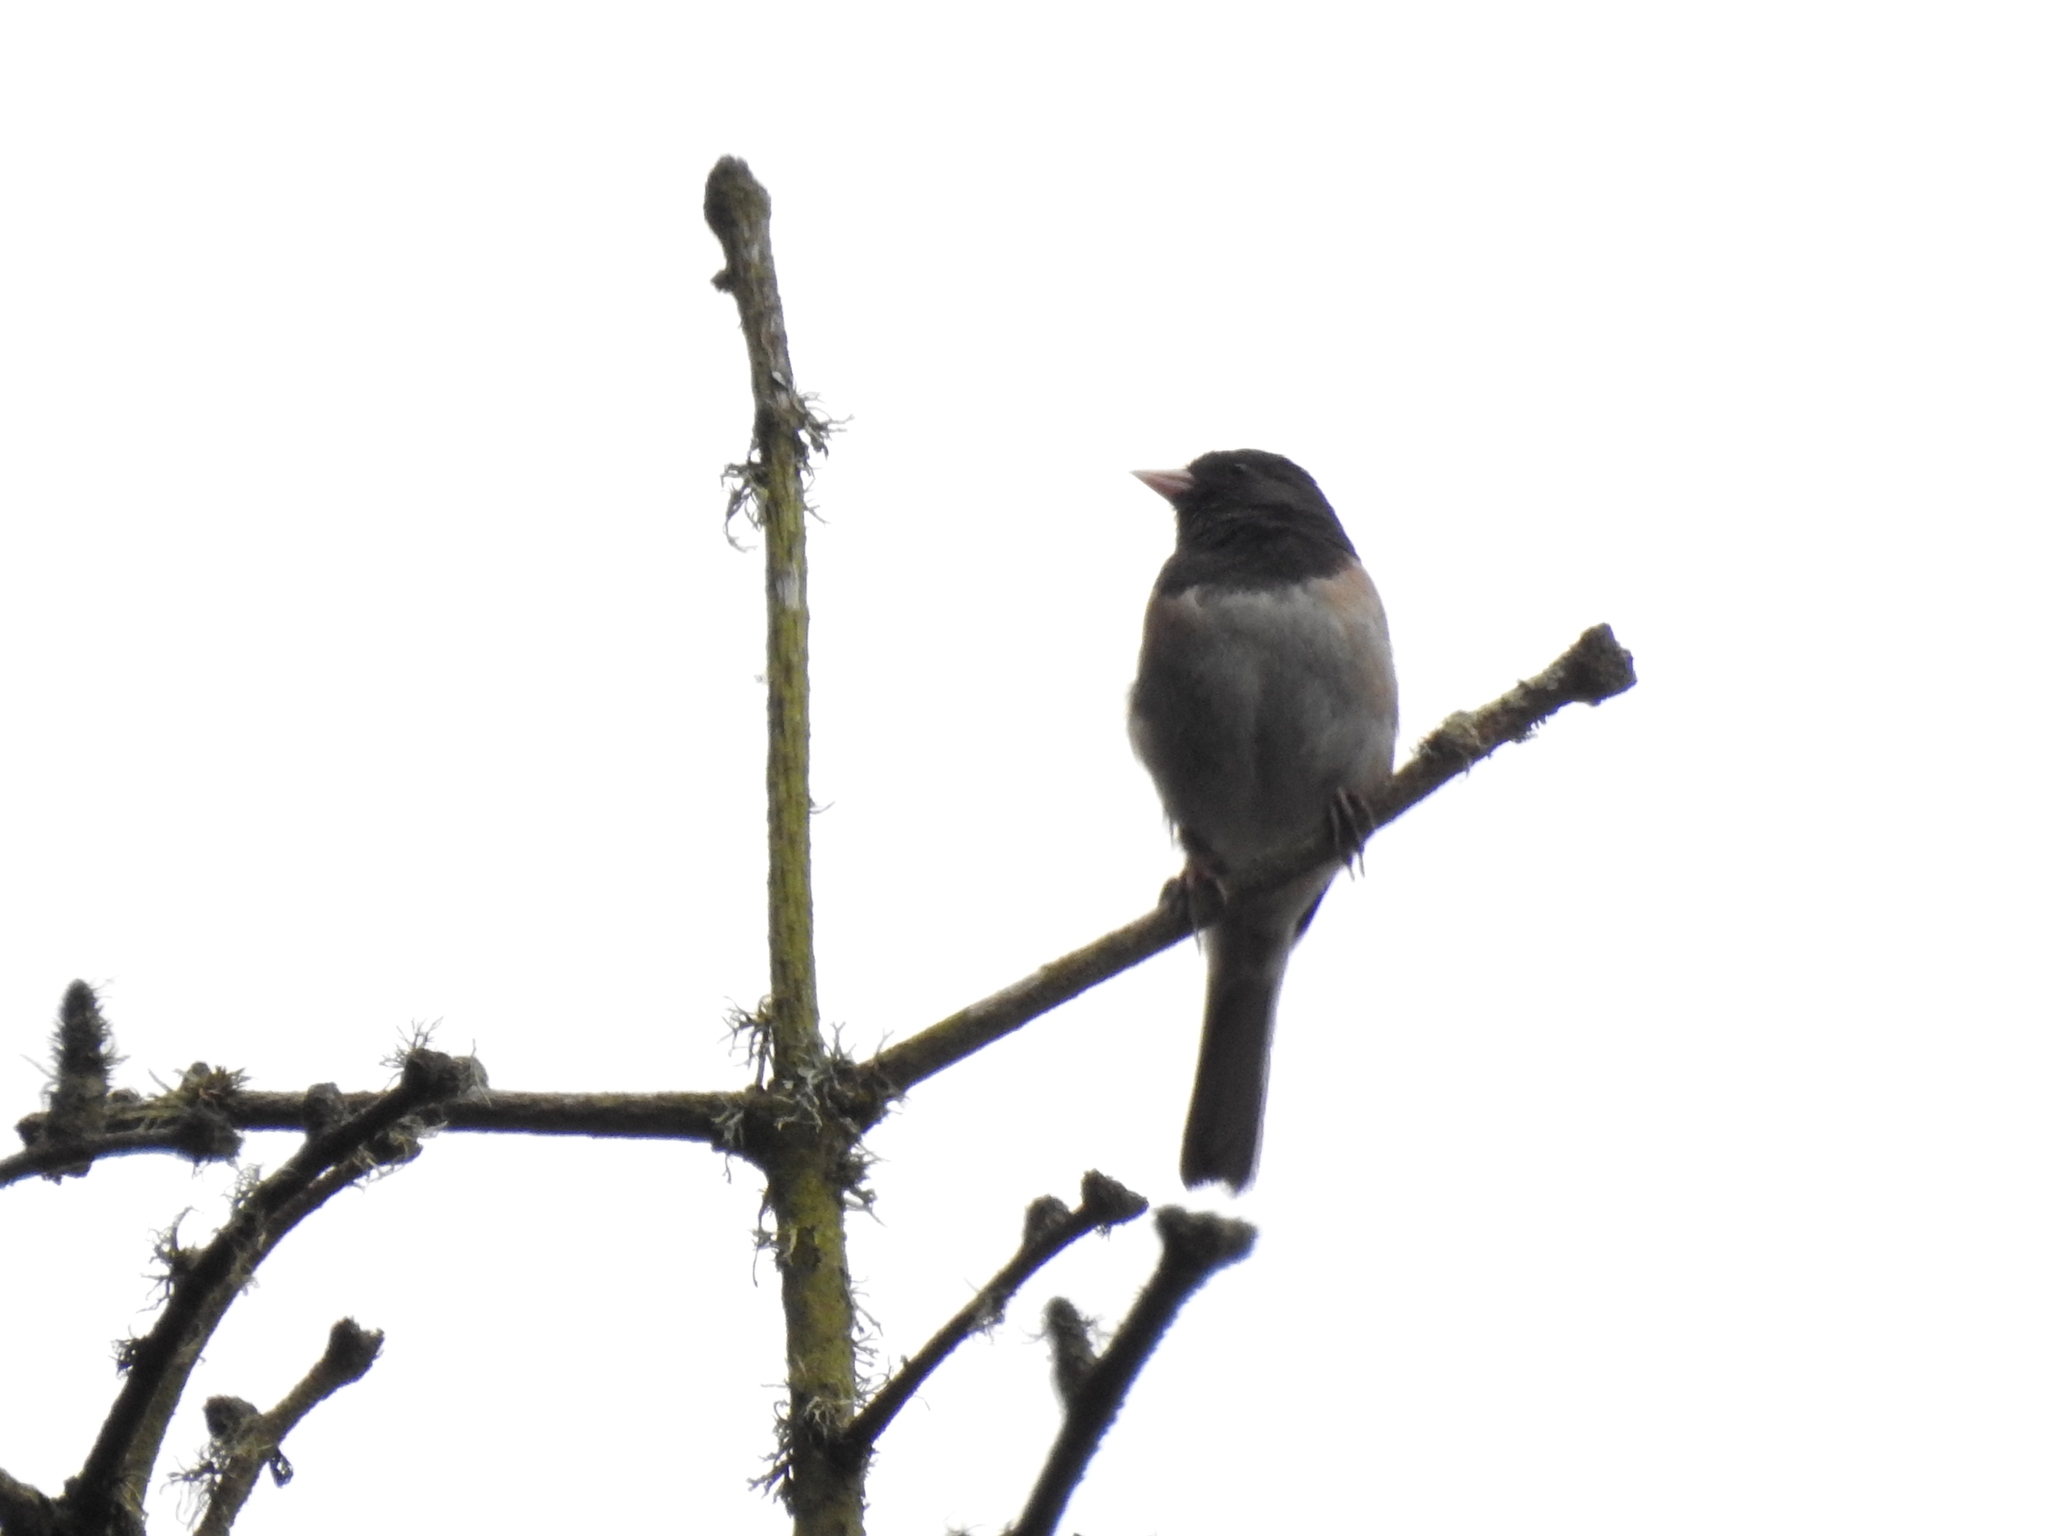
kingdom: Animalia
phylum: Chordata
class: Aves
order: Passeriformes
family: Passerellidae
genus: Junco
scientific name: Junco hyemalis
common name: Dark-eyed junco
